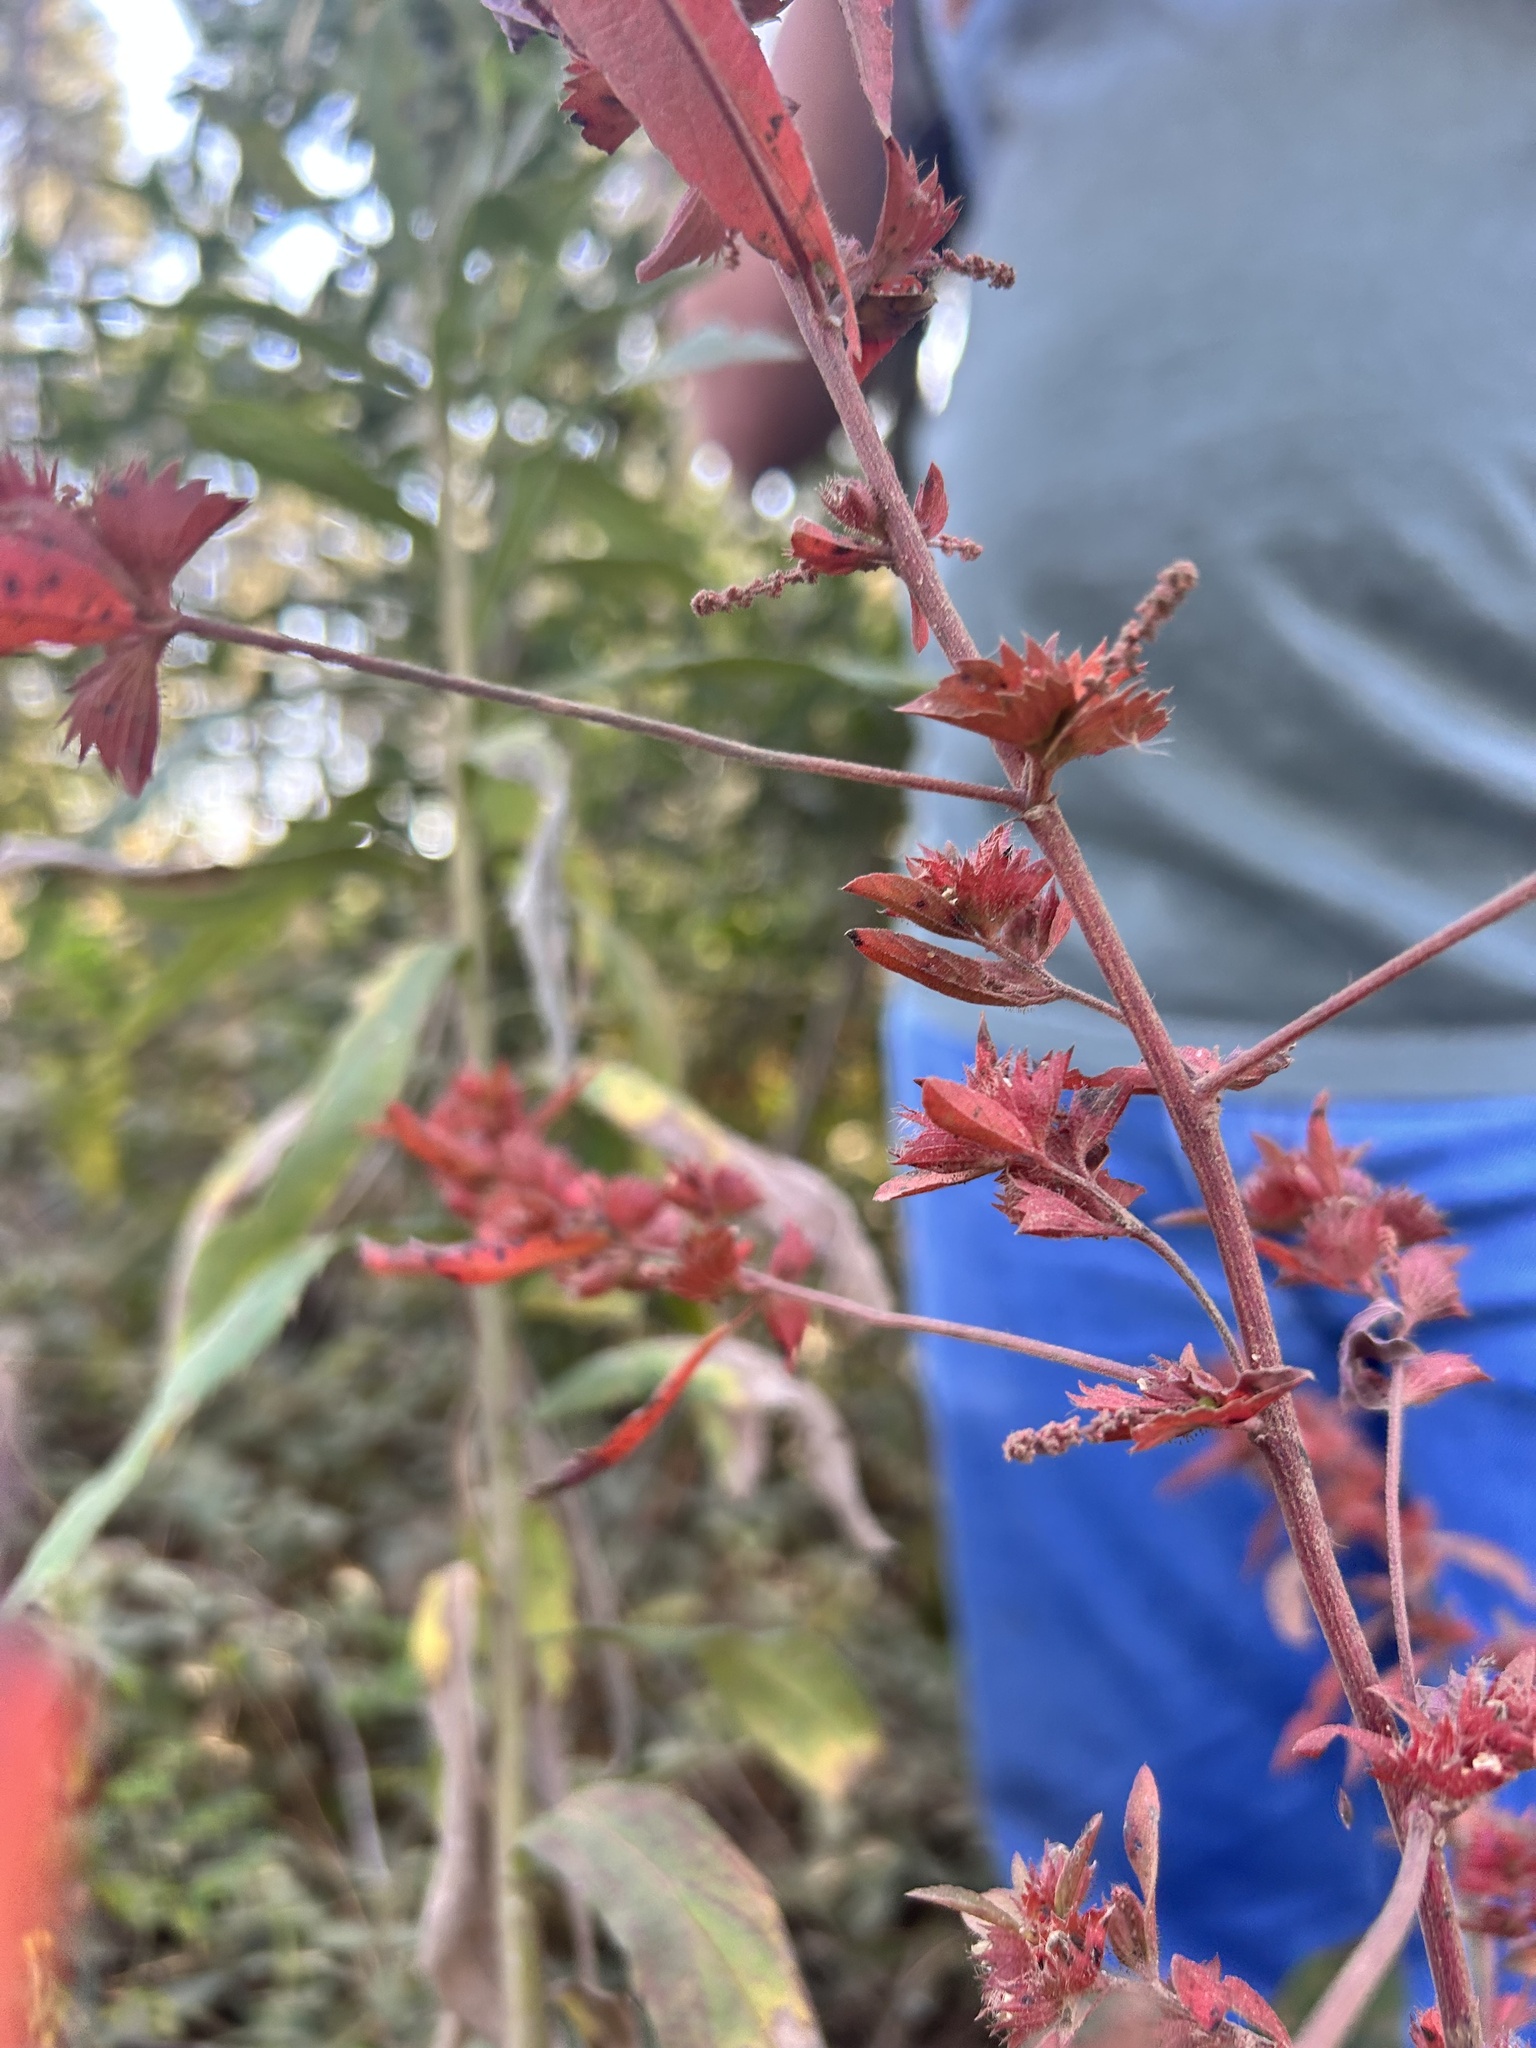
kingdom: Plantae
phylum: Tracheophyta
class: Magnoliopsida
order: Malpighiales
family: Euphorbiaceae
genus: Acalypha
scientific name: Acalypha gracilens
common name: Slender three-seeded mercury
